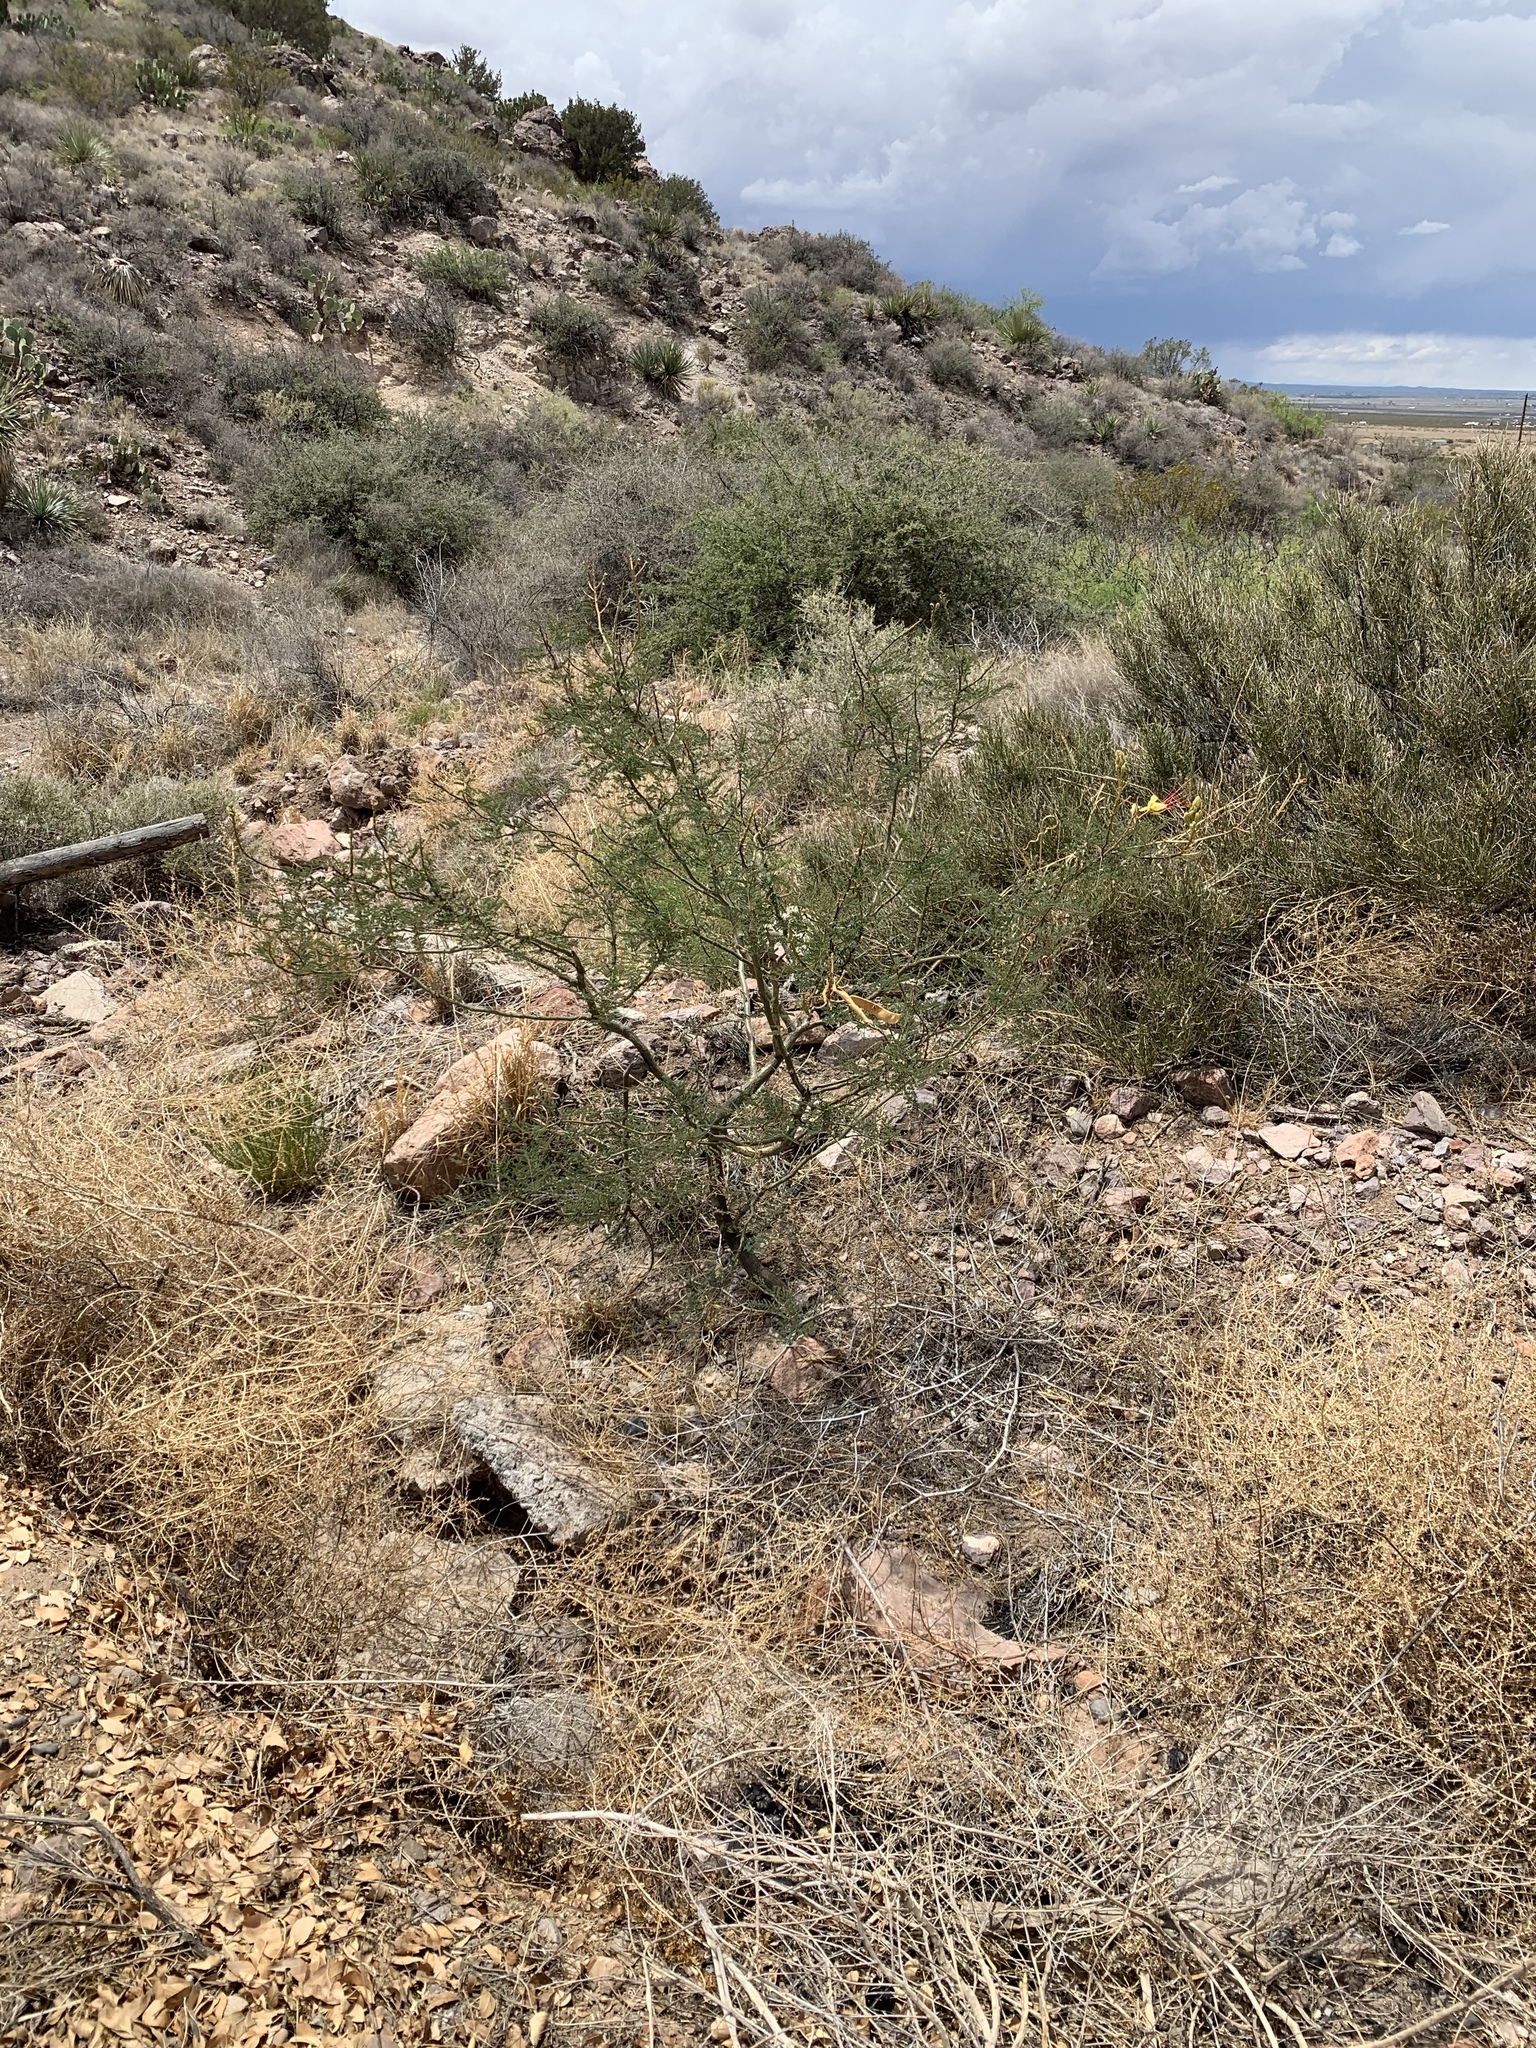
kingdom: Plantae
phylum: Tracheophyta
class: Magnoliopsida
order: Fabales
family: Fabaceae
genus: Erythrostemon
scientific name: Erythrostemon gilliesii
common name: Bird-of-paradise shrub
